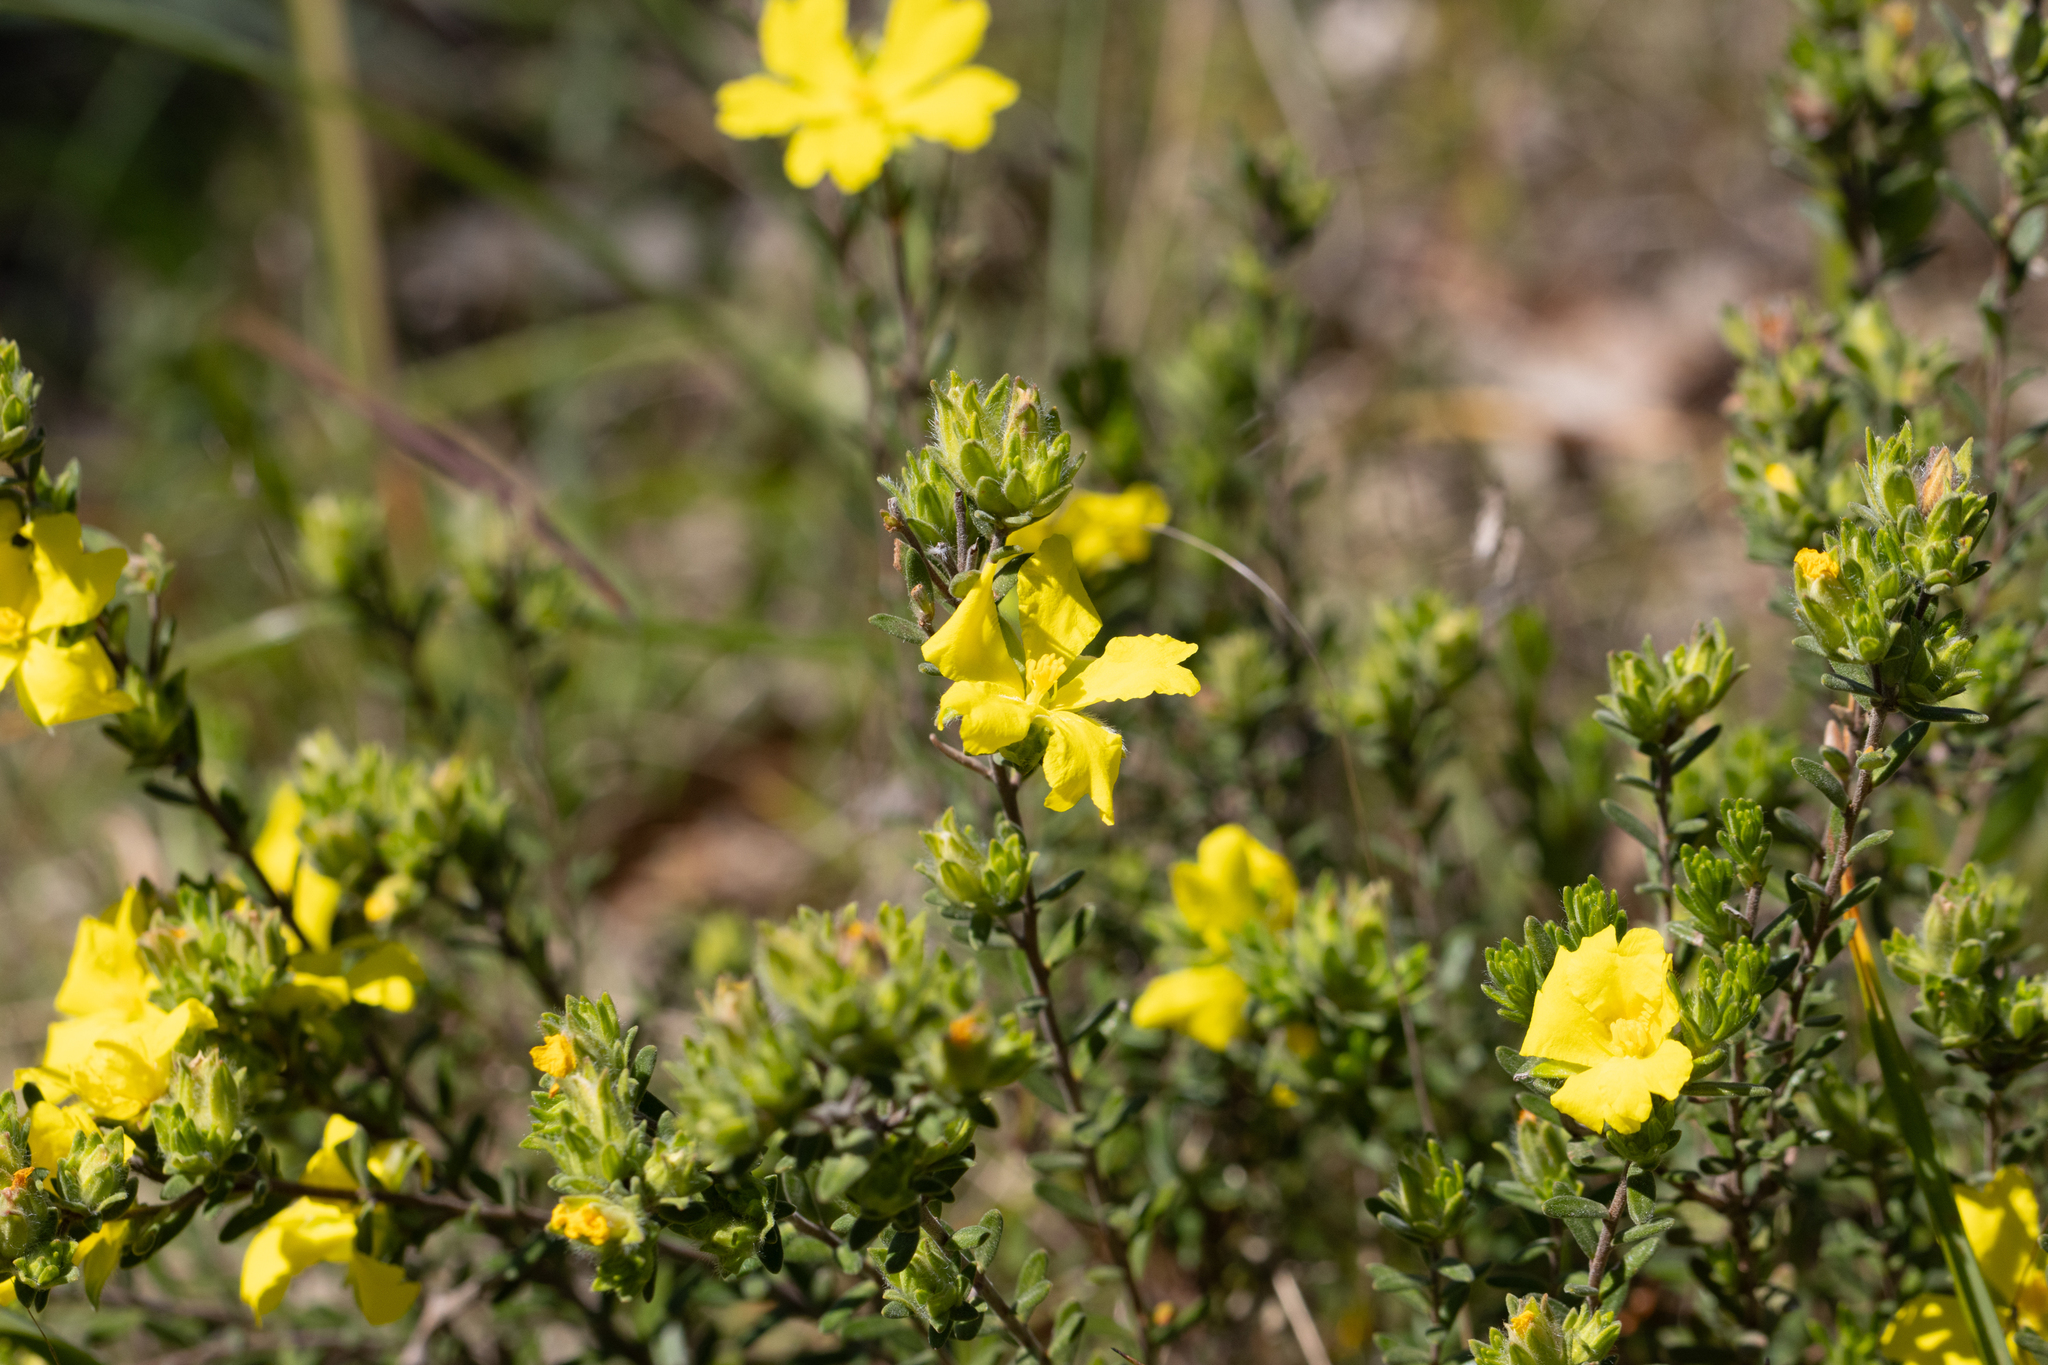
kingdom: Plantae
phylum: Tracheophyta
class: Magnoliopsida
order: Dilleniales
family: Dilleniaceae
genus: Hibbertia
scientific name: Hibbertia crinita
